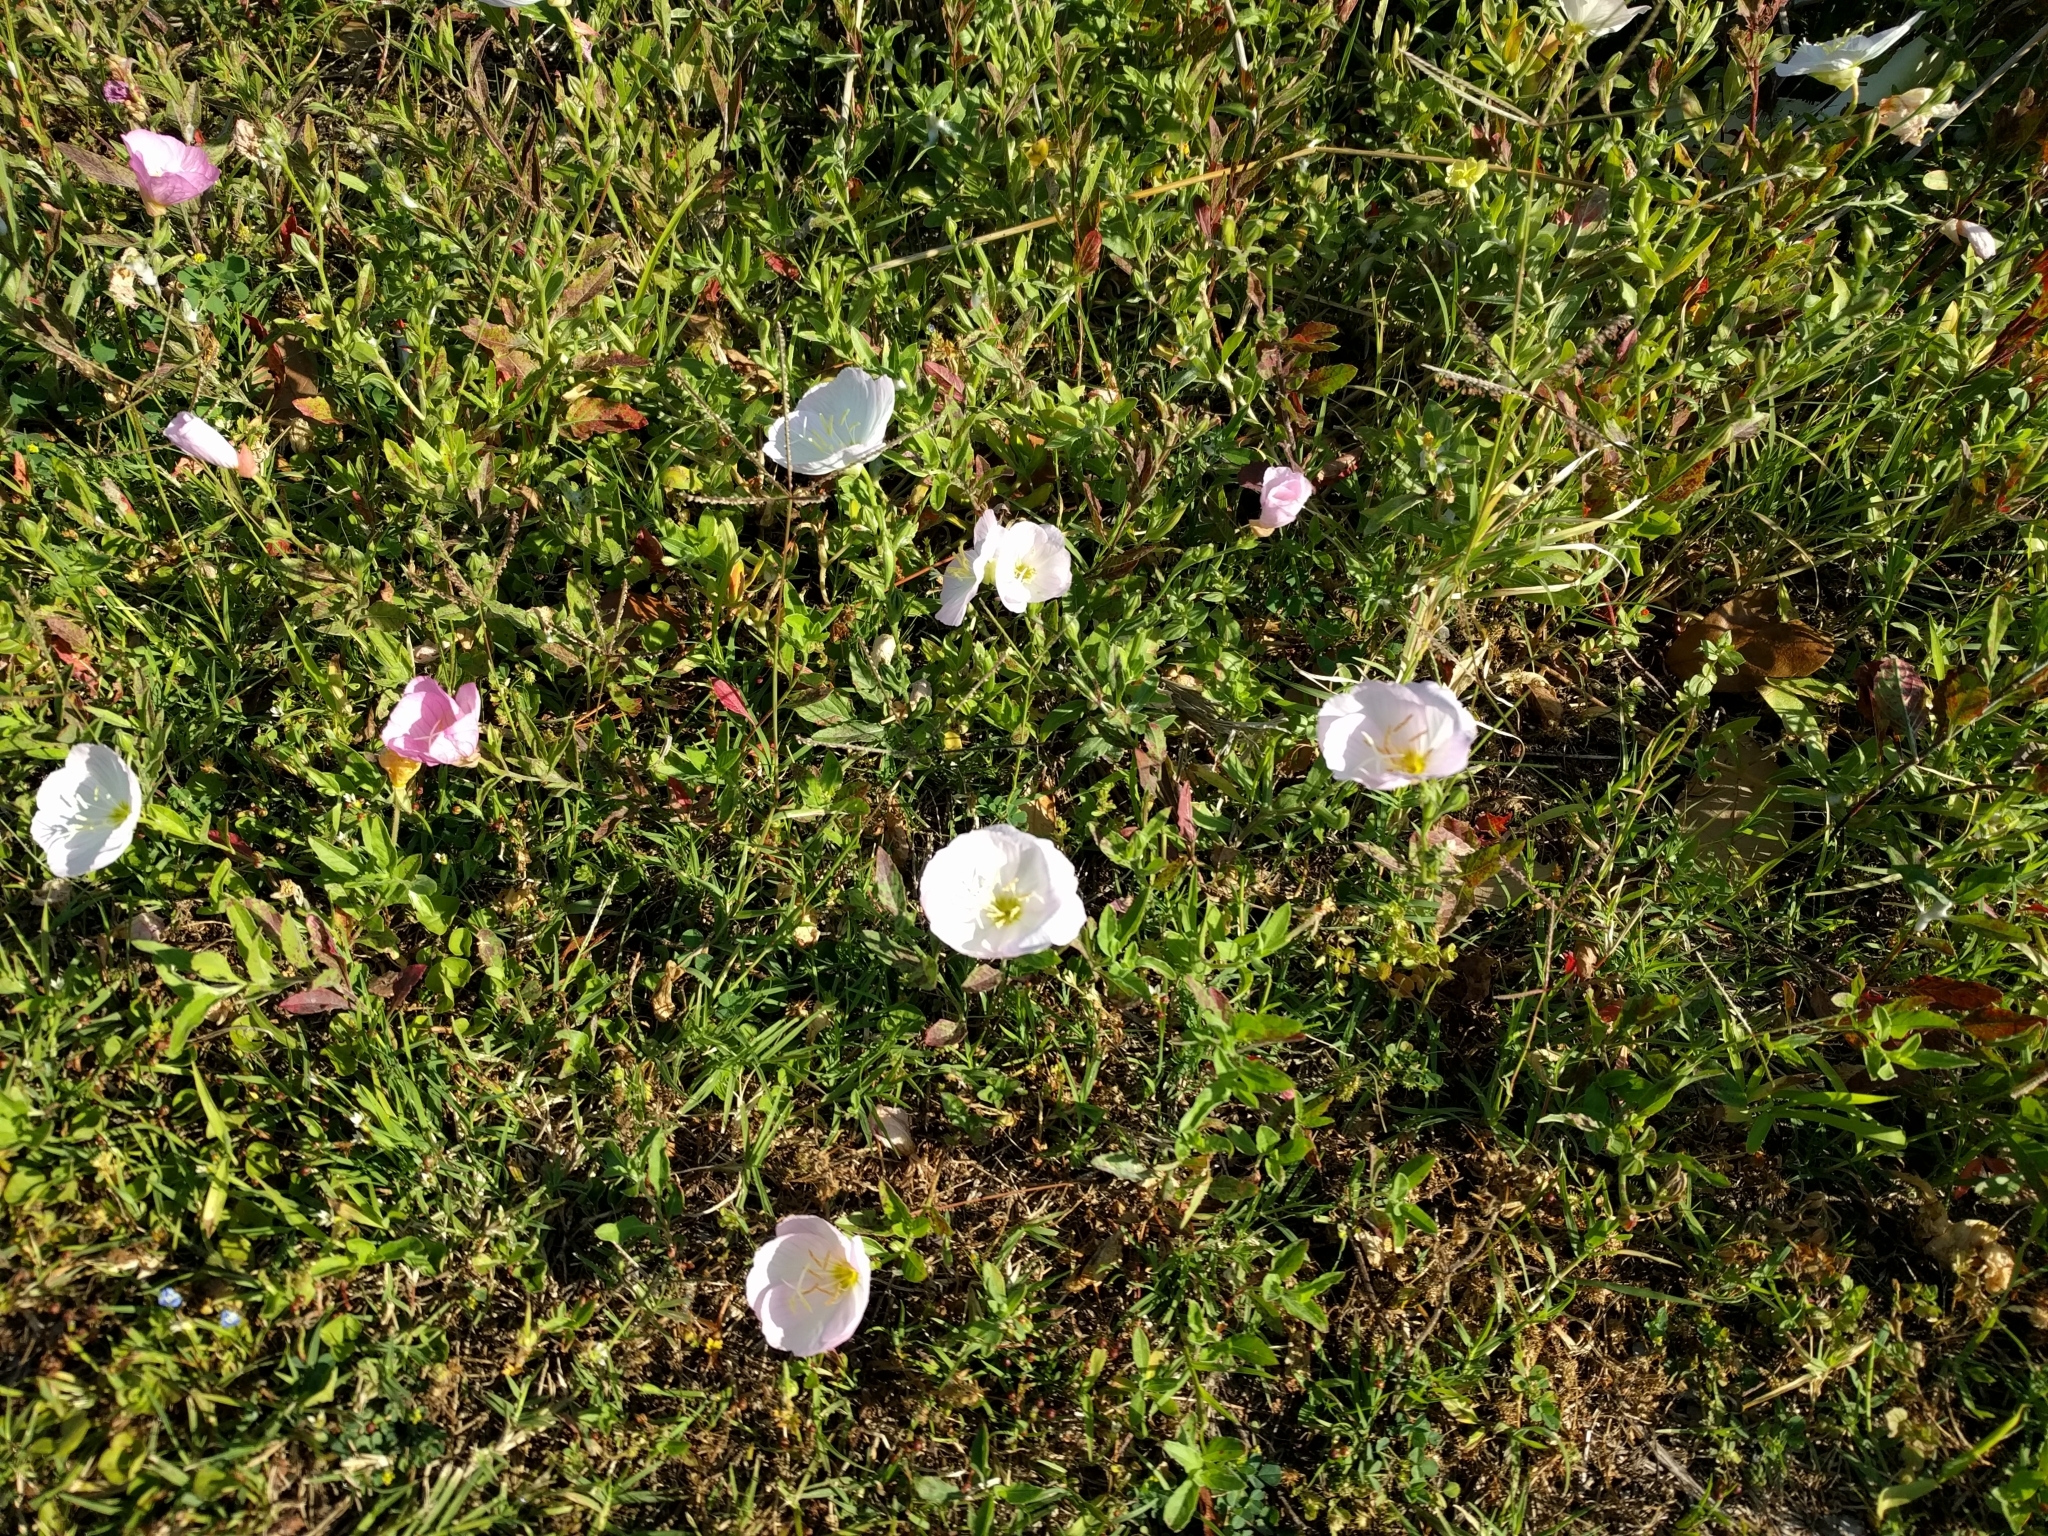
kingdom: Plantae
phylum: Tracheophyta
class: Magnoliopsida
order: Myrtales
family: Onagraceae
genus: Oenothera
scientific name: Oenothera speciosa
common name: White evening-primrose
